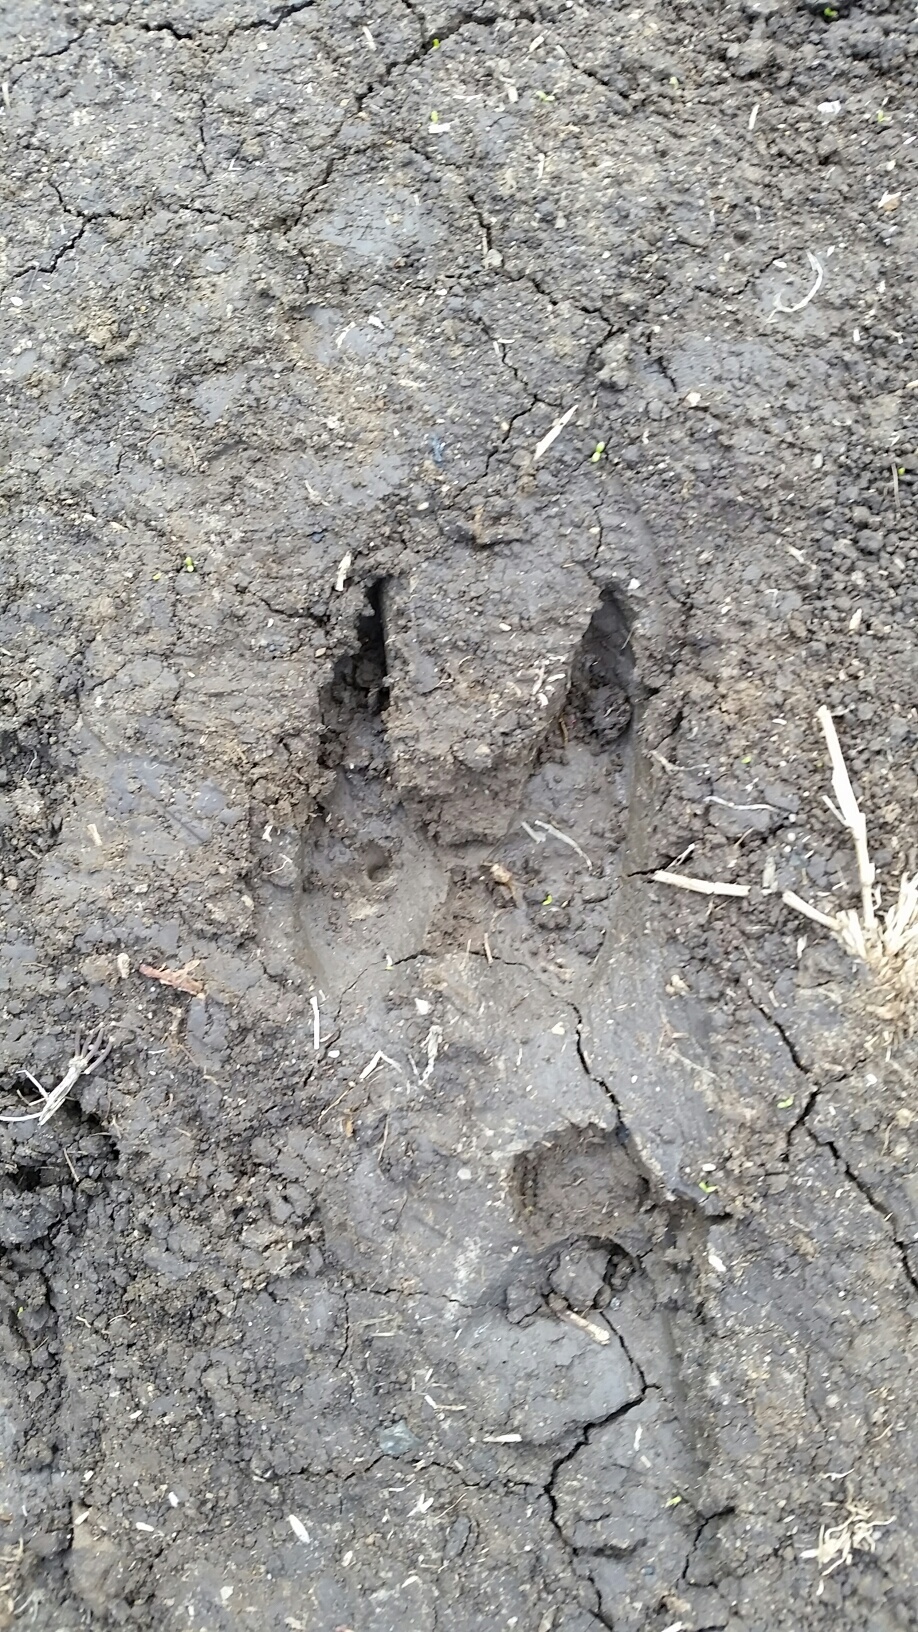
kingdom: Animalia
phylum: Chordata
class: Mammalia
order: Artiodactyla
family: Cervidae
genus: Odocoileus
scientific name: Odocoileus hemionus
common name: Mule deer
